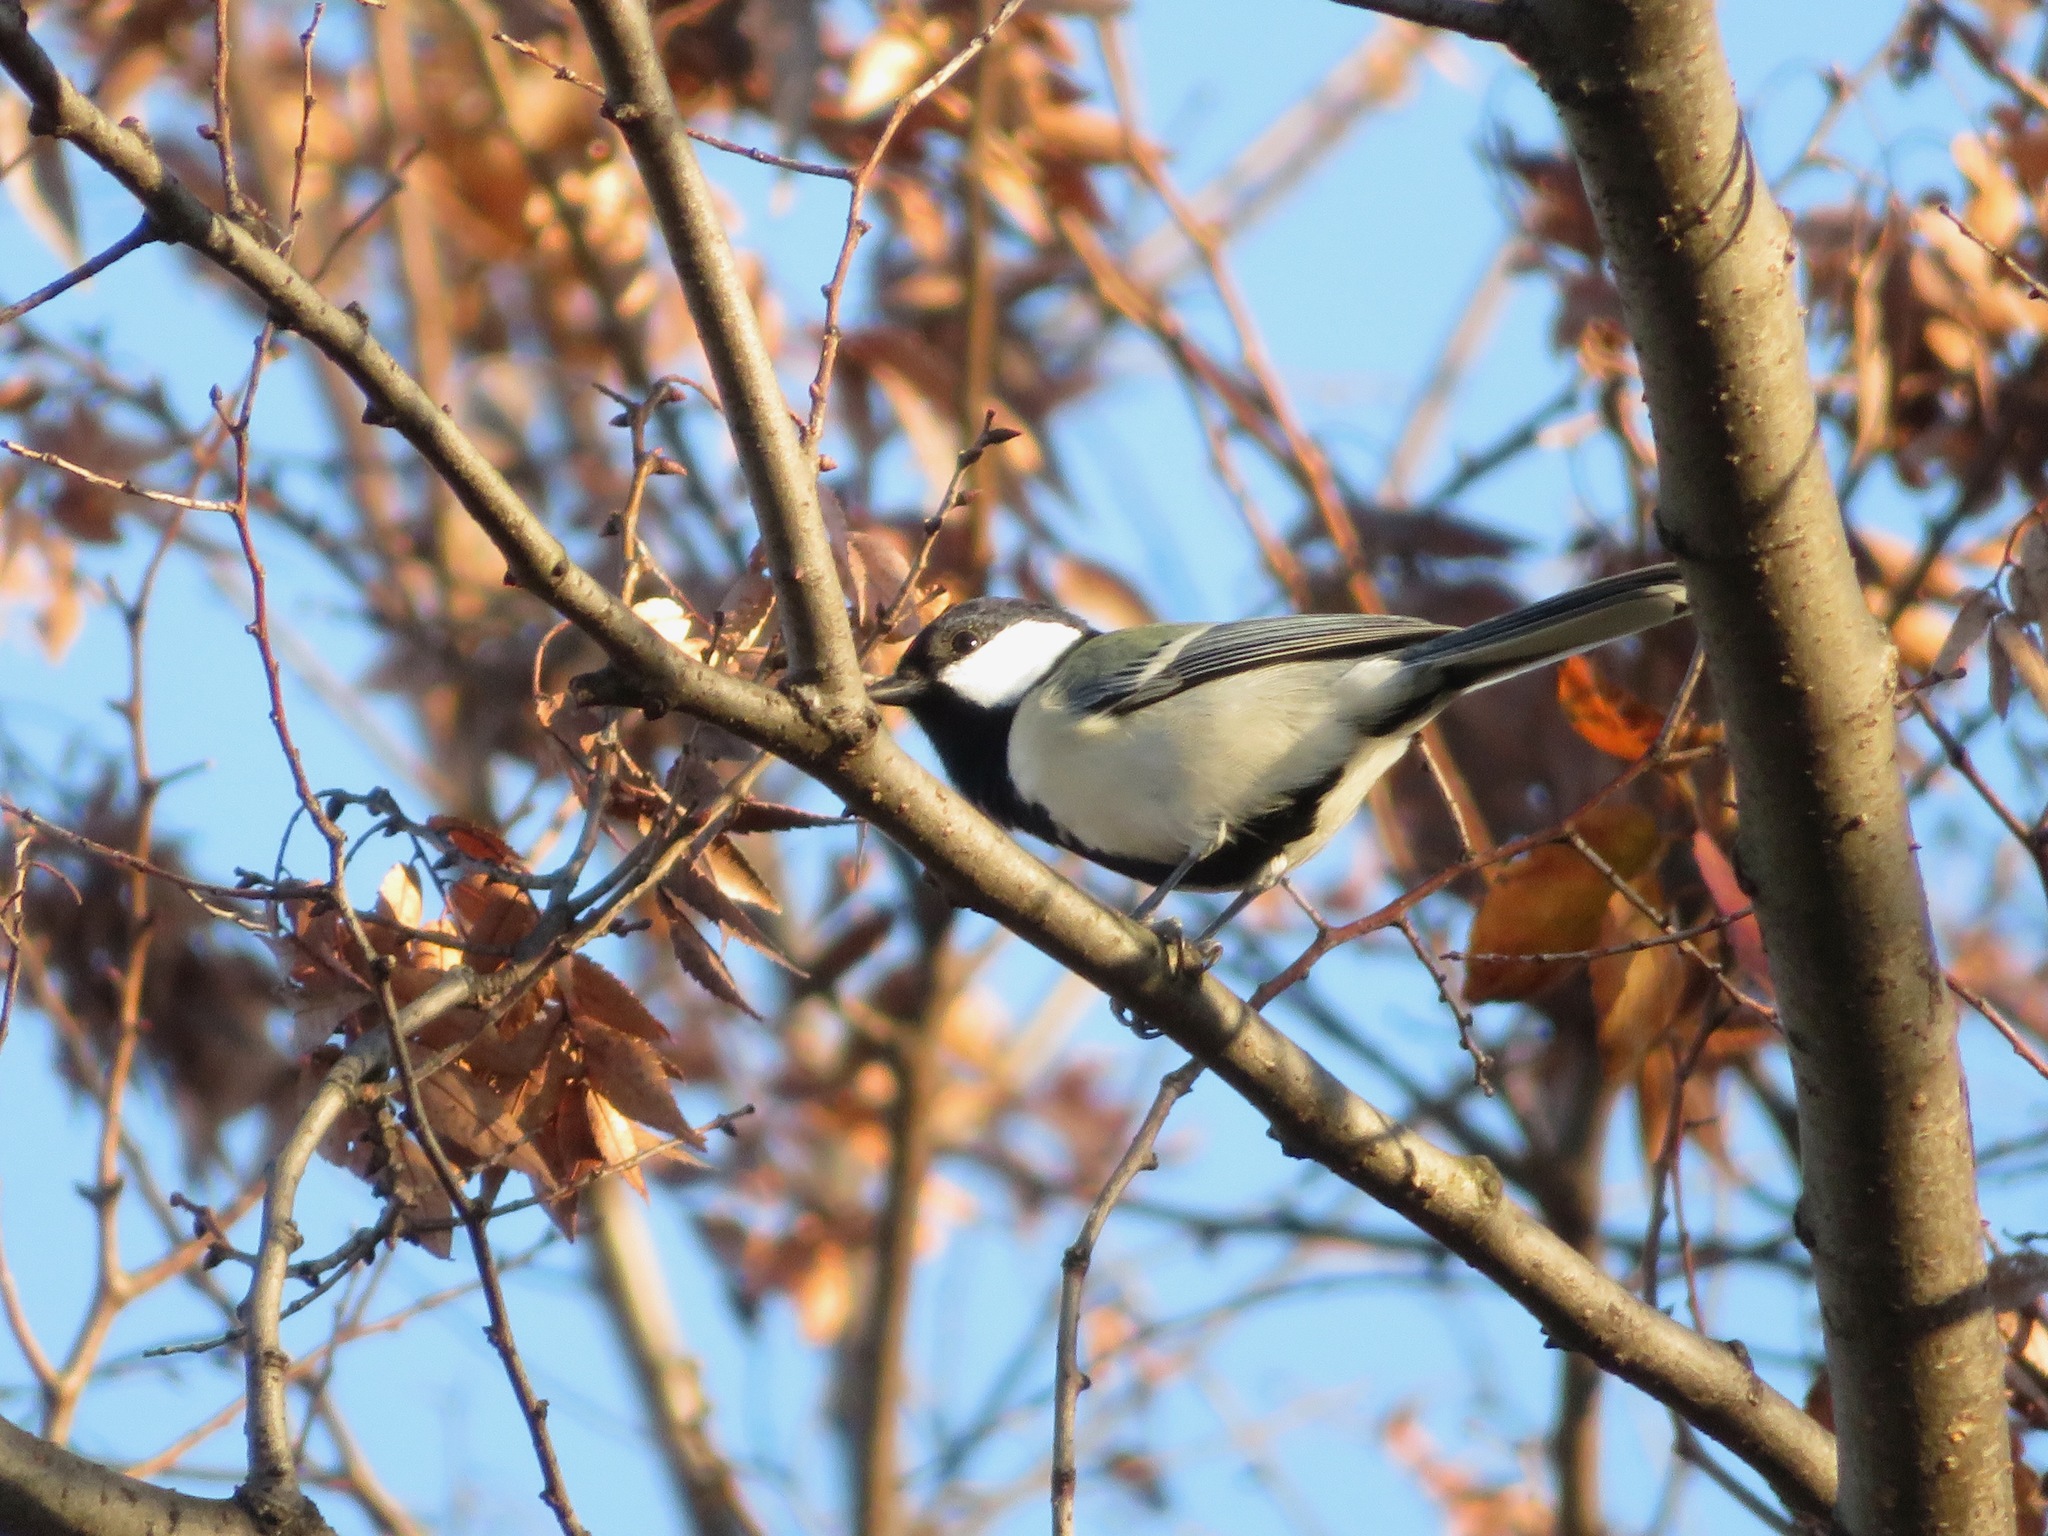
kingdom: Animalia
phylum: Chordata
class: Aves
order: Passeriformes
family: Paridae
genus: Parus
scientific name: Parus minor
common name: Japanese tit
